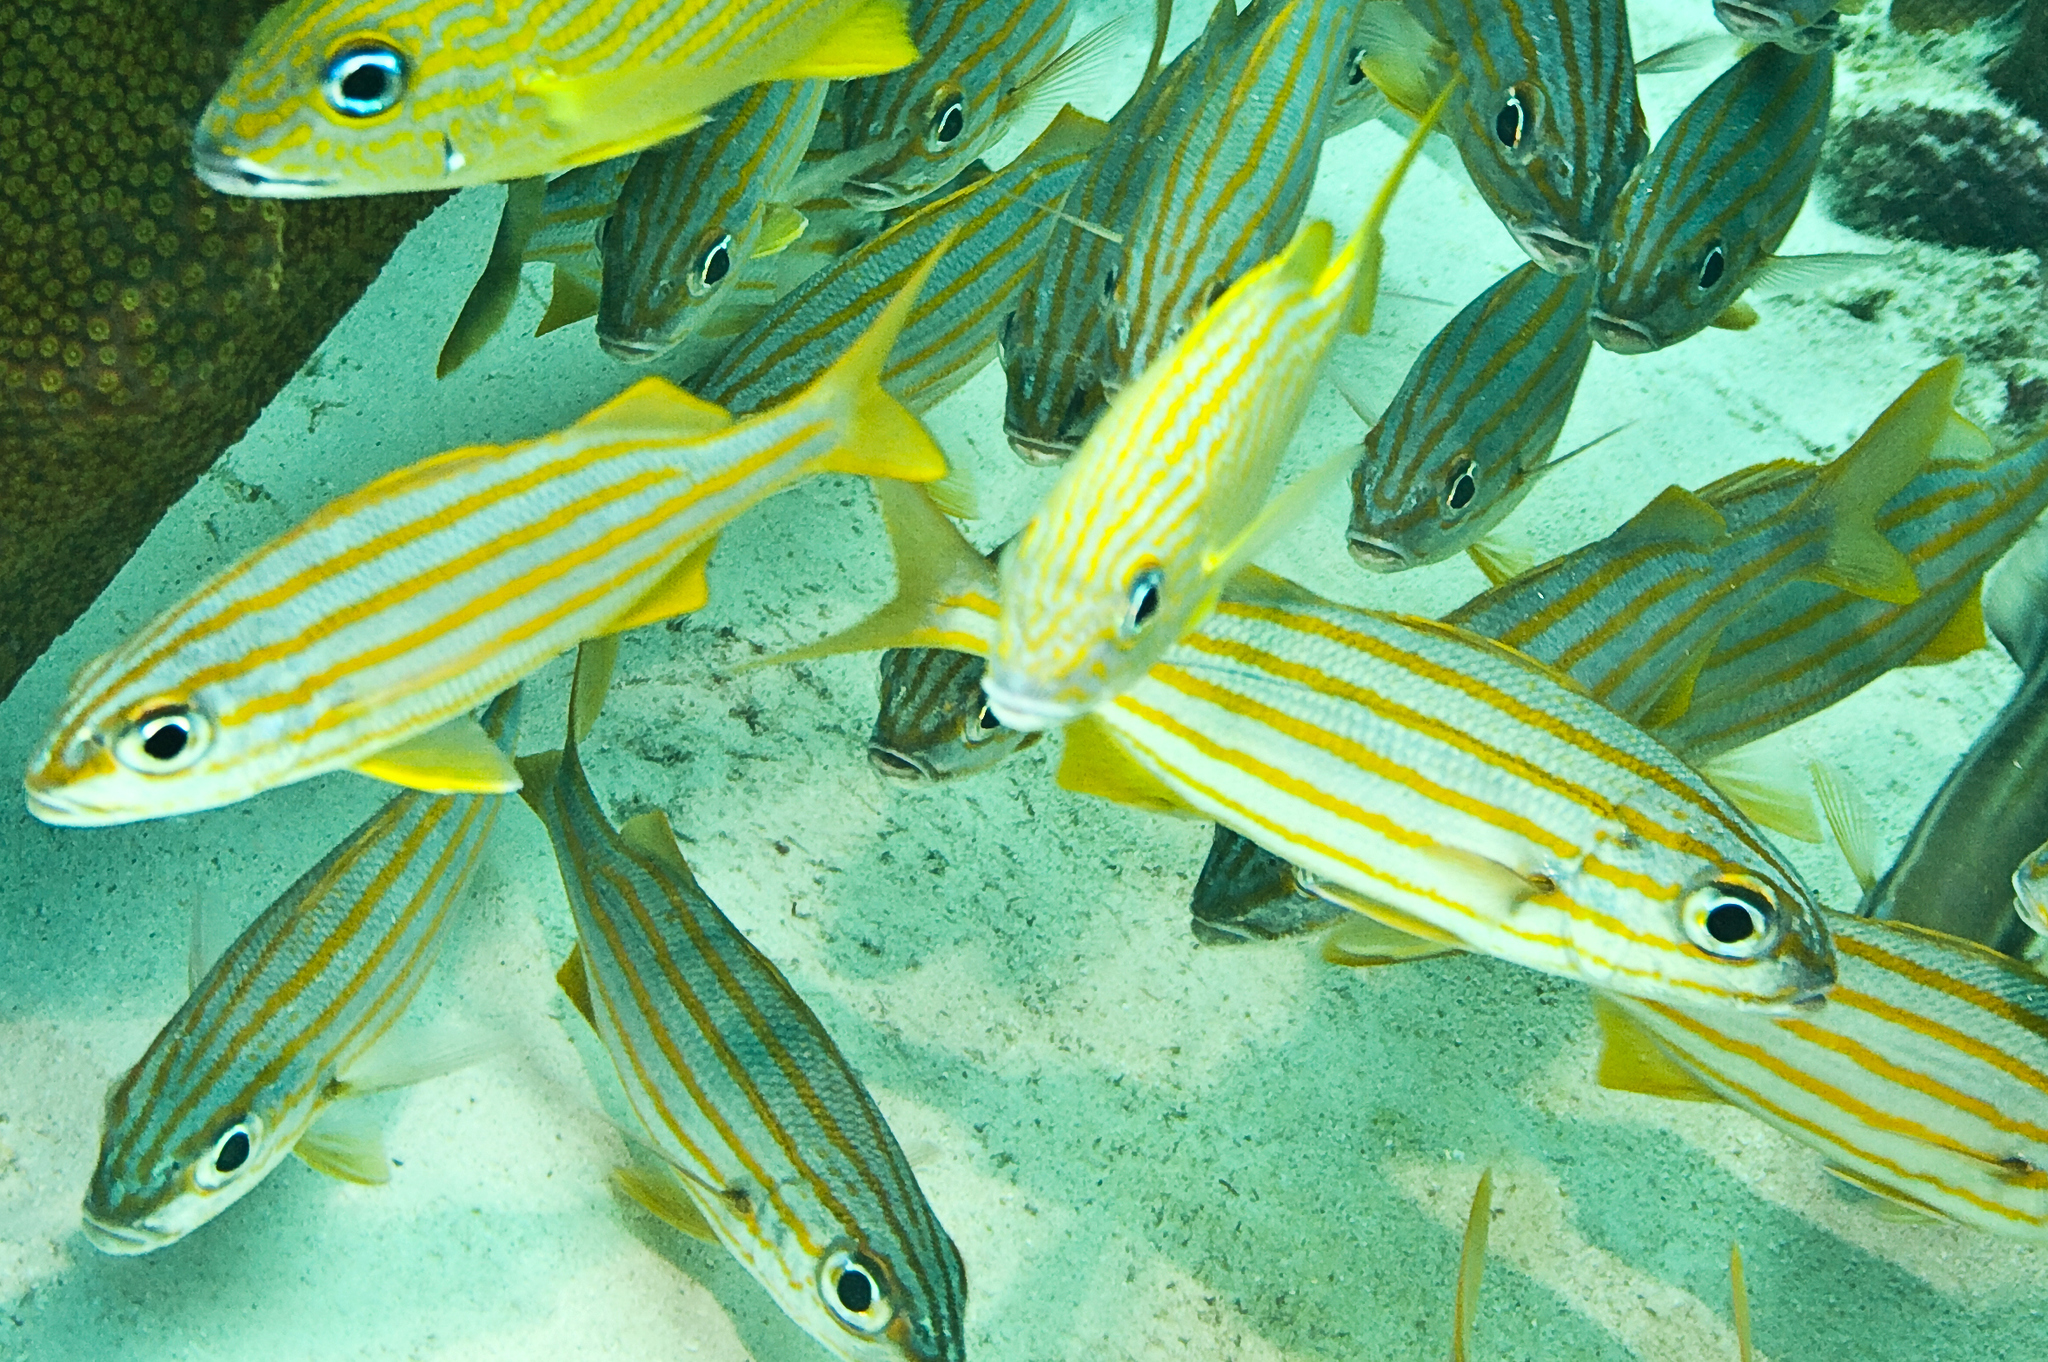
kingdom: Animalia
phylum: Chordata
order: Perciformes
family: Haemulidae
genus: Haemulon
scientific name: Haemulon chrysargyreum
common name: Smallmouth grunt
